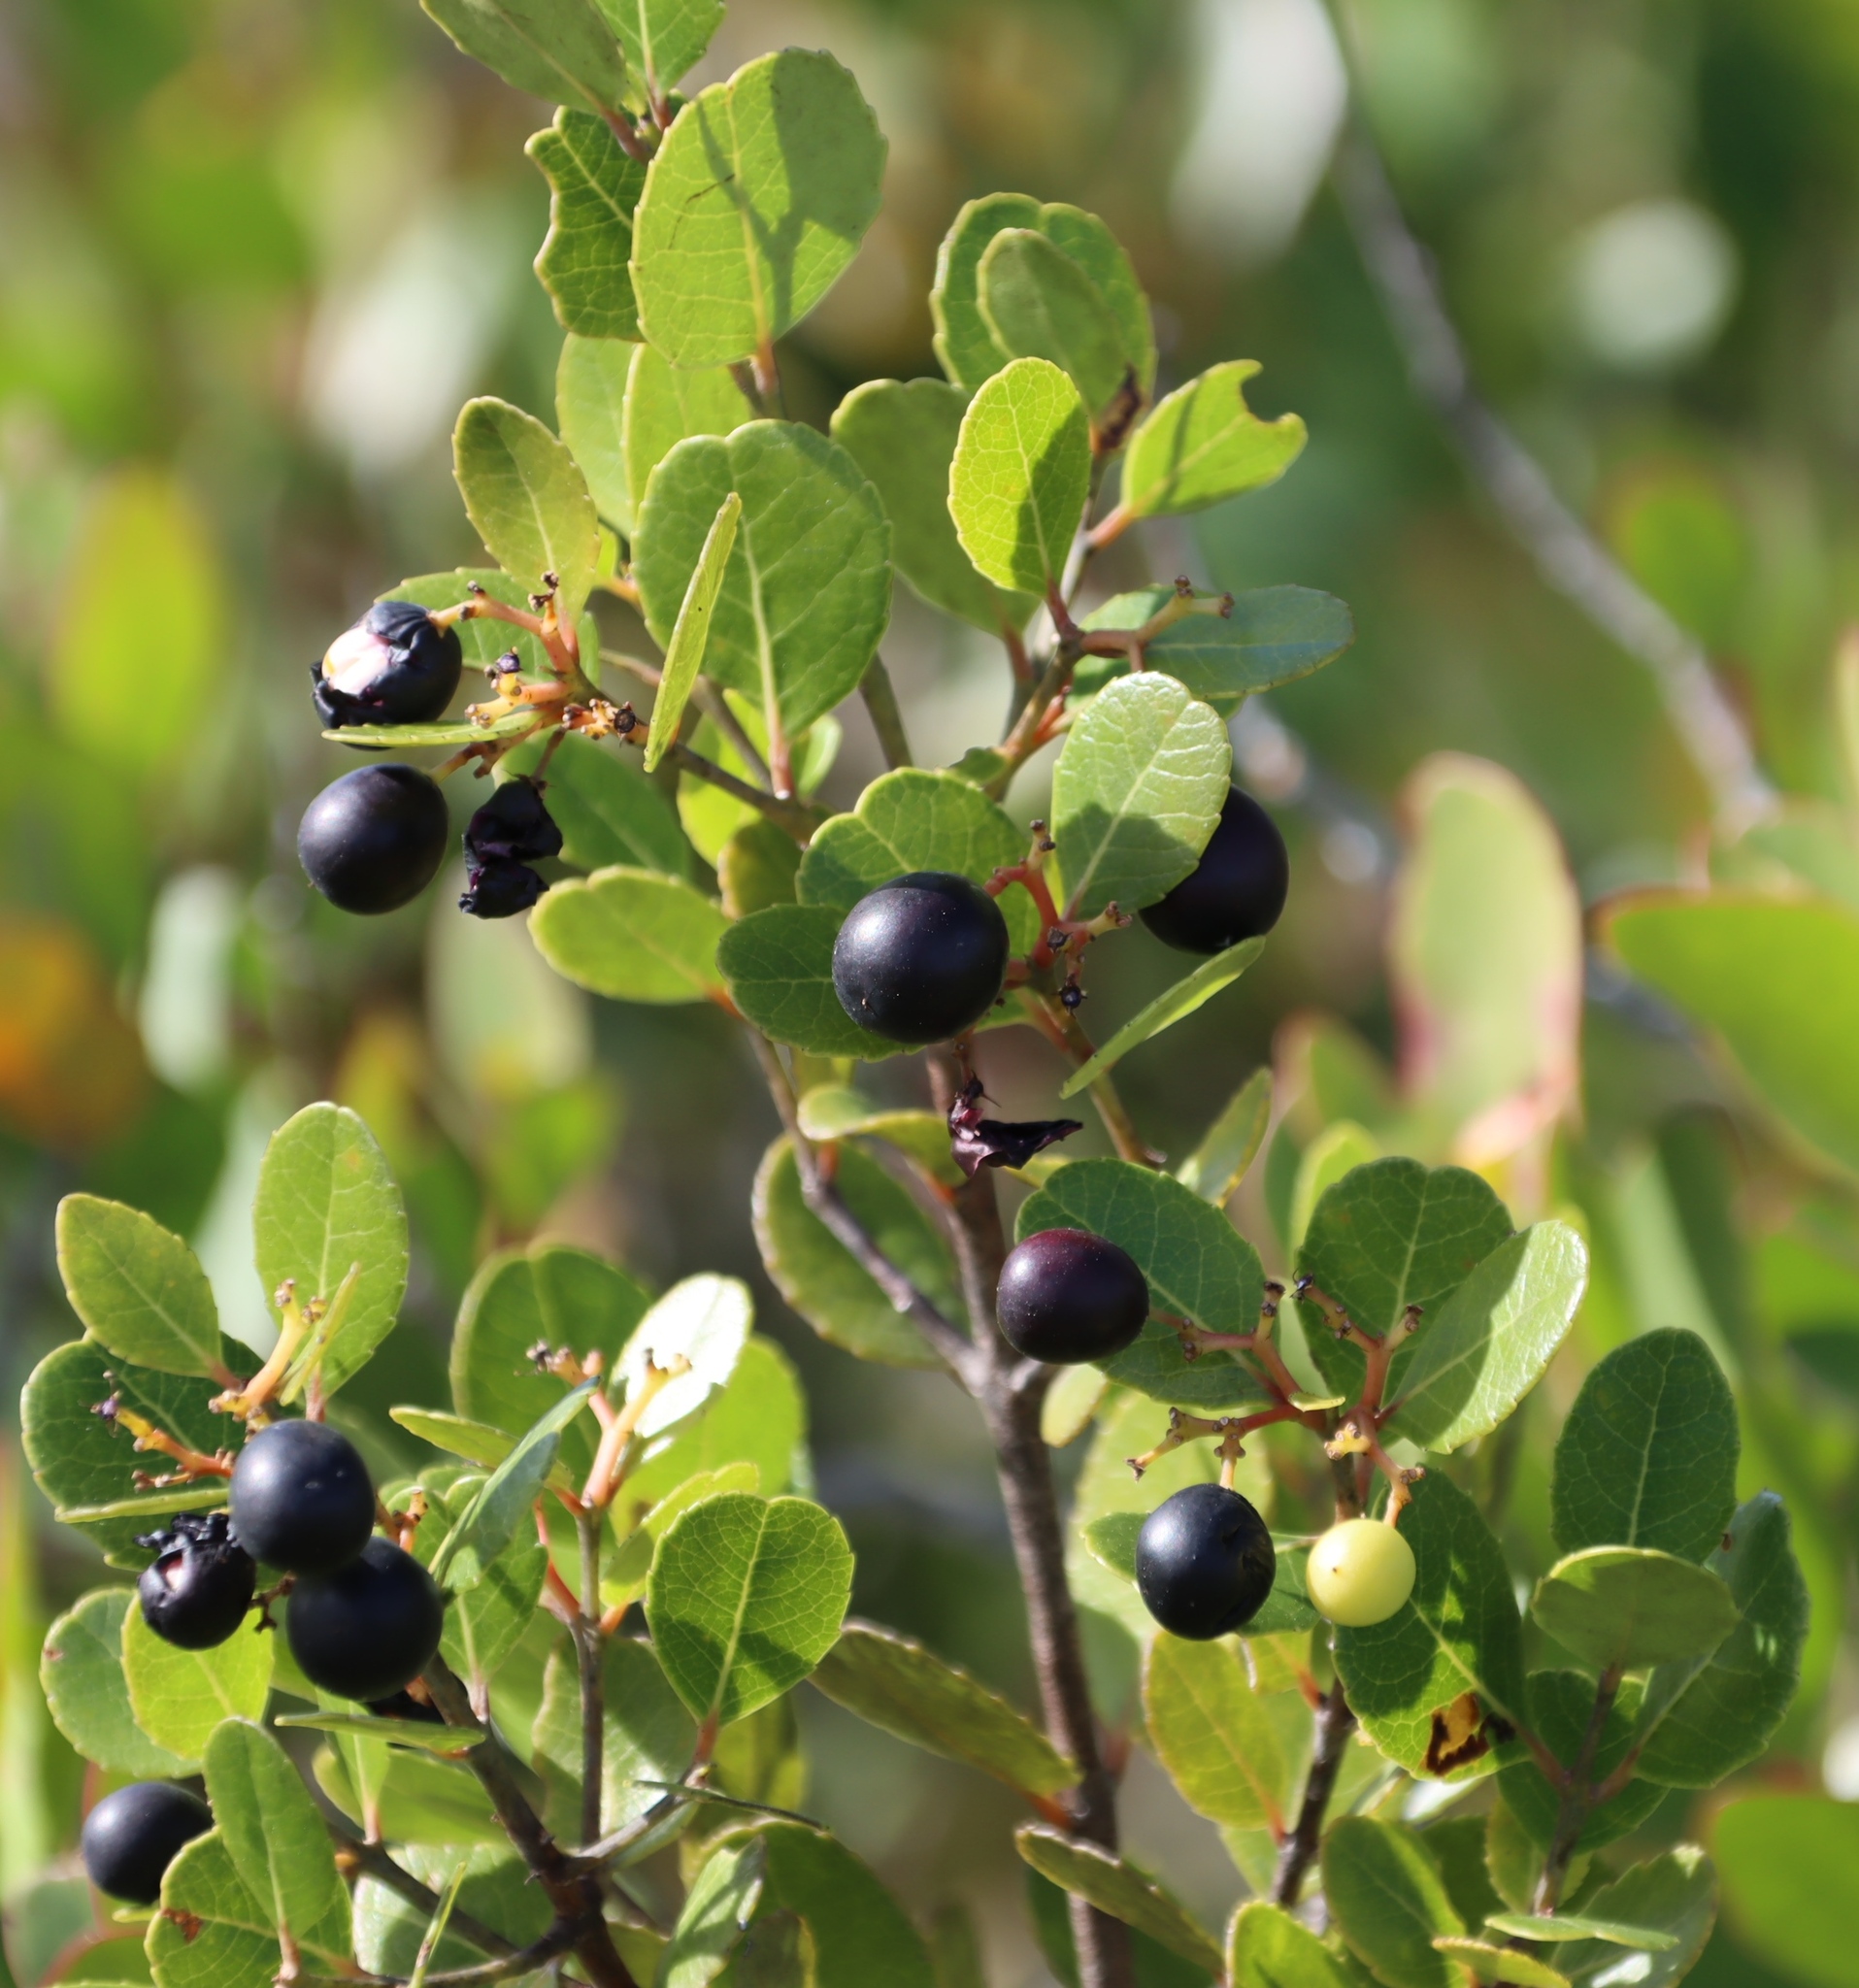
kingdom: Plantae
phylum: Tracheophyta
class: Magnoliopsida
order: Celastrales
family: Celastraceae
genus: Cassine
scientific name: Cassine peragua
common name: Cape saffron
